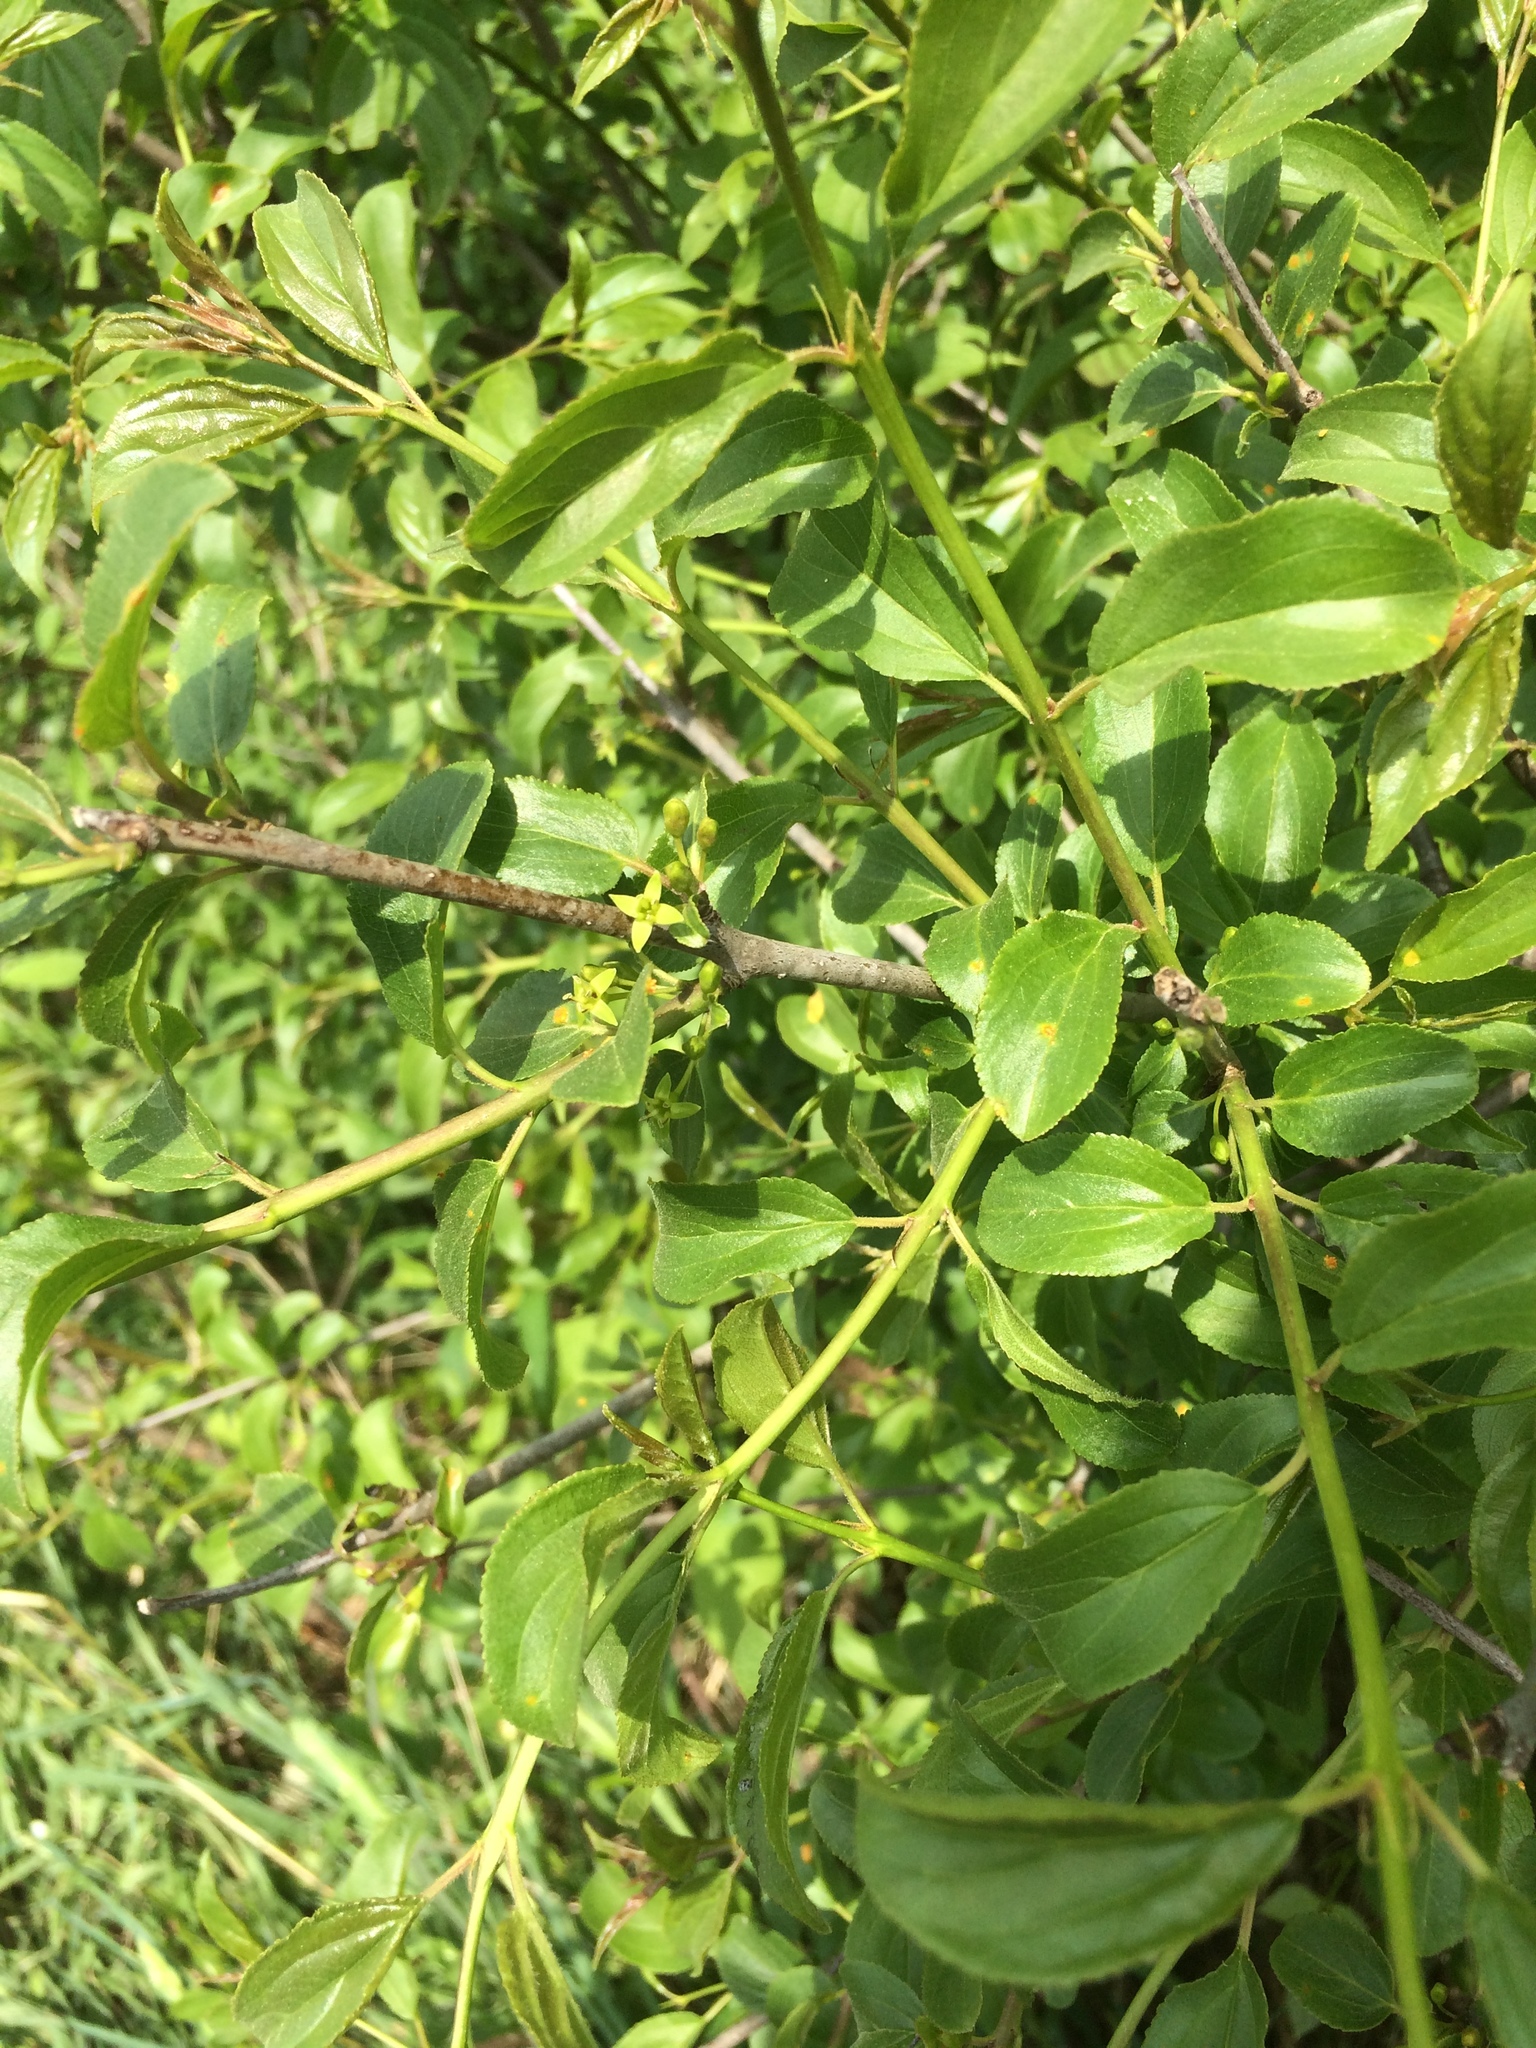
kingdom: Plantae
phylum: Tracheophyta
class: Magnoliopsida
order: Rosales
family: Rhamnaceae
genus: Rhamnus
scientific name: Rhamnus cathartica
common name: Common buckthorn
